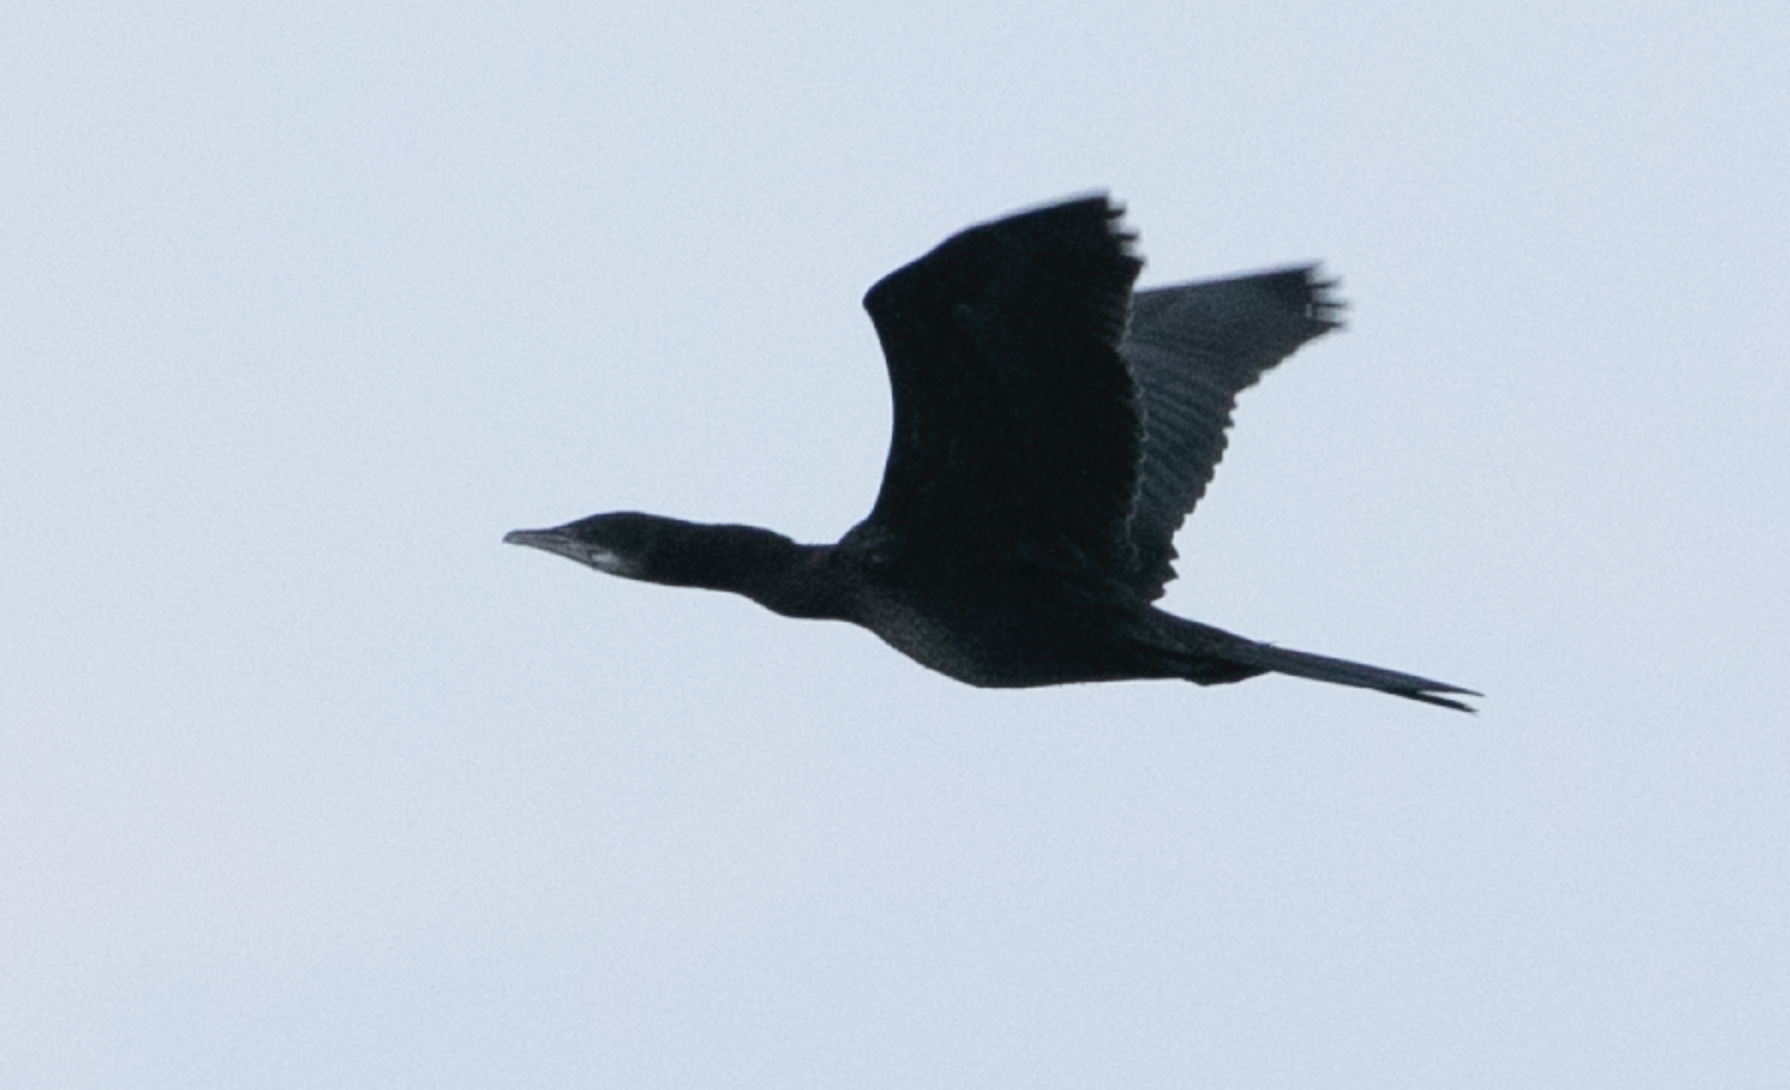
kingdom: Animalia
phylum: Chordata
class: Aves
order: Suliformes
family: Phalacrocoracidae
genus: Microcarbo
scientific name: Microcarbo pygmaeus
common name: Pygmy cormorant
